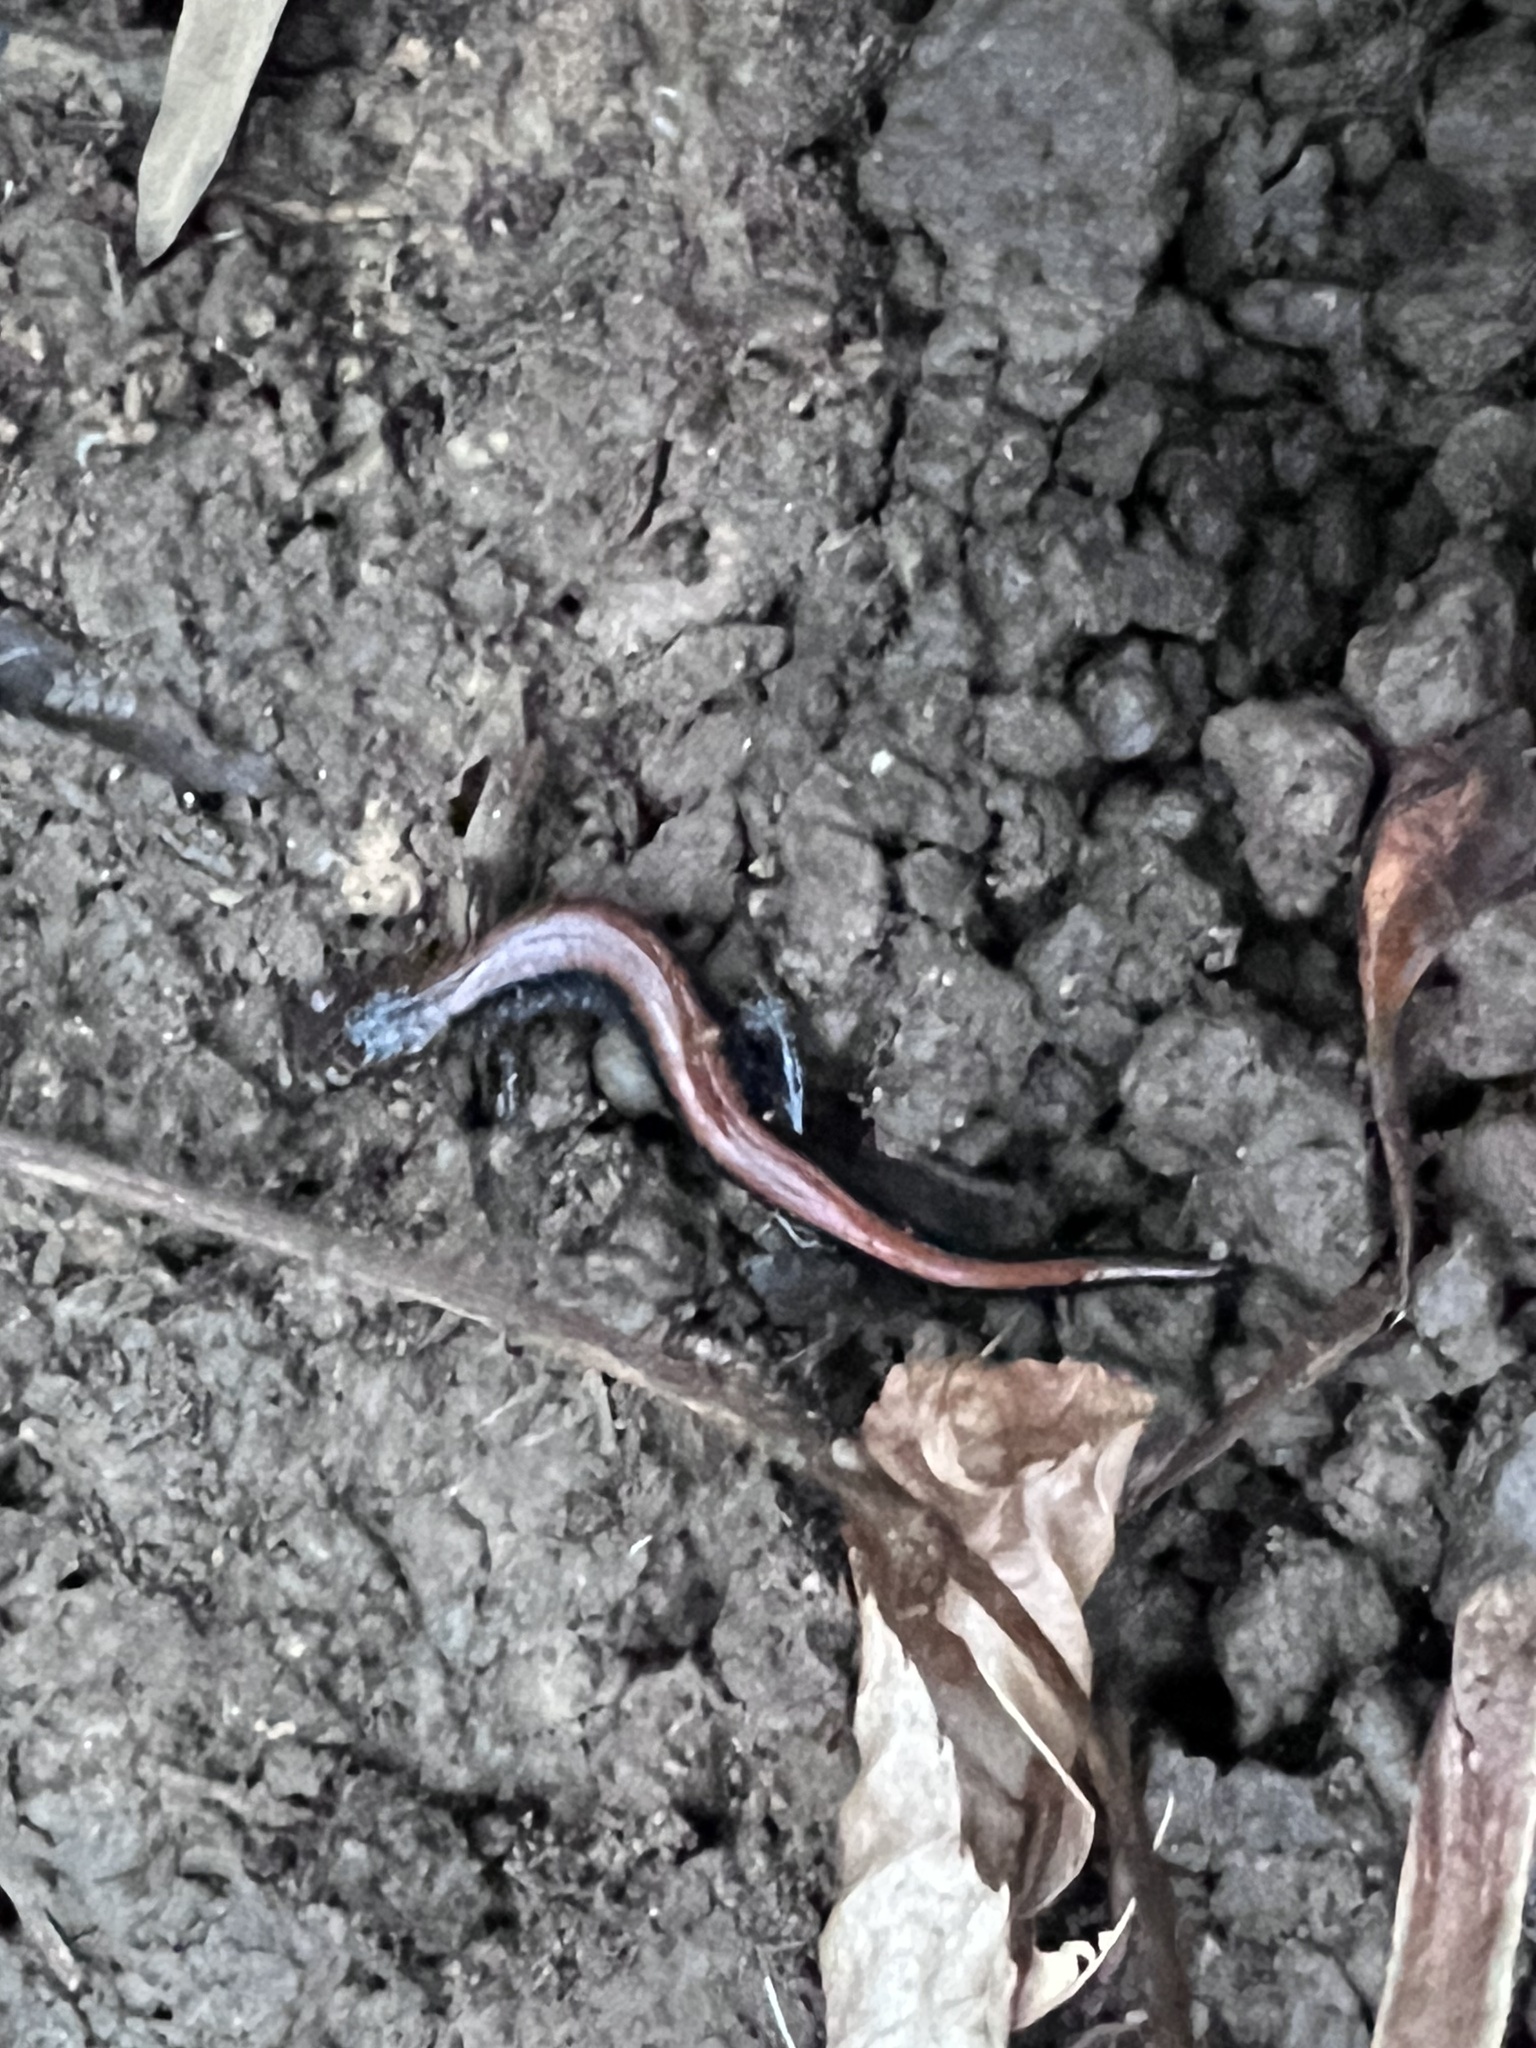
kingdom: Animalia
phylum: Chordata
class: Amphibia
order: Caudata
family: Plethodontidae
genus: Plethodon
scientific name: Plethodon cinereus
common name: Redback salamander
